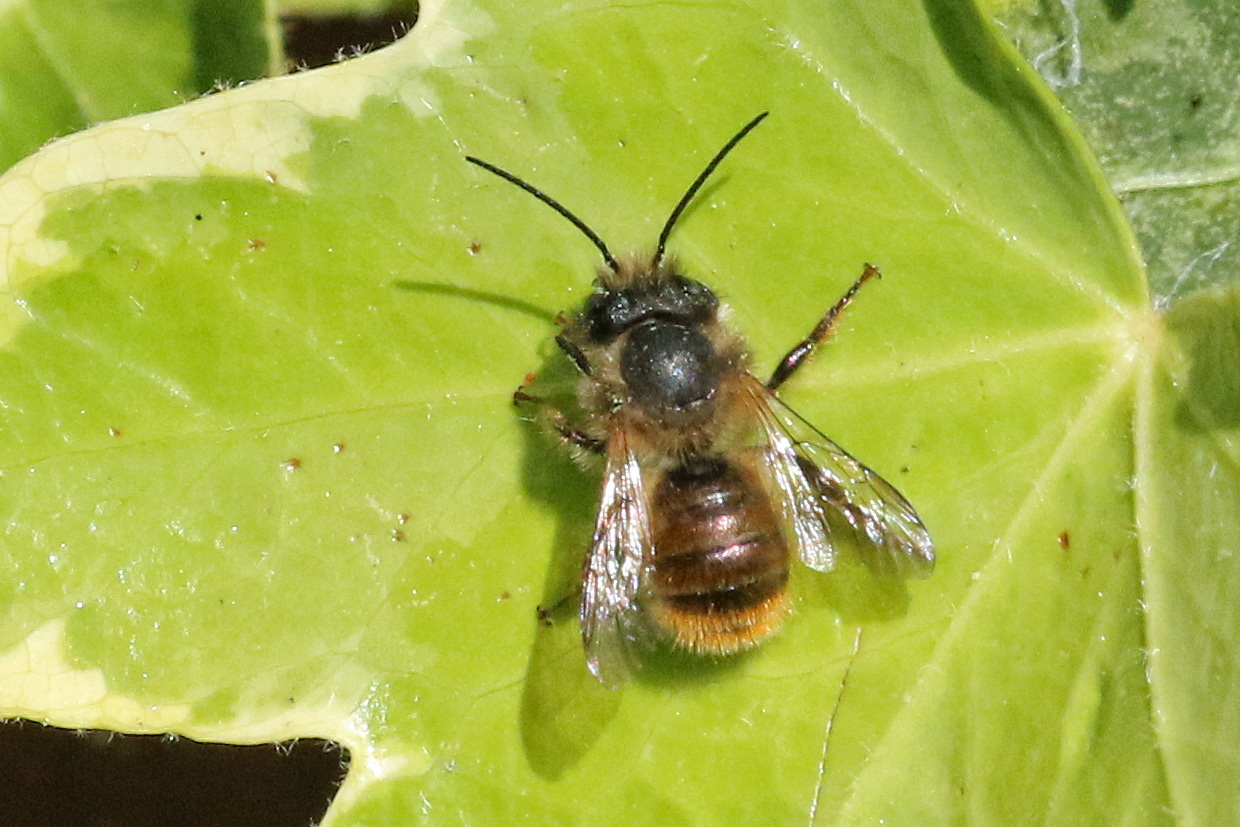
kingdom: Animalia
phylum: Arthropoda
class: Insecta
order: Hymenoptera
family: Megachilidae
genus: Osmia
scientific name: Osmia bicornis
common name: Red mason bee
